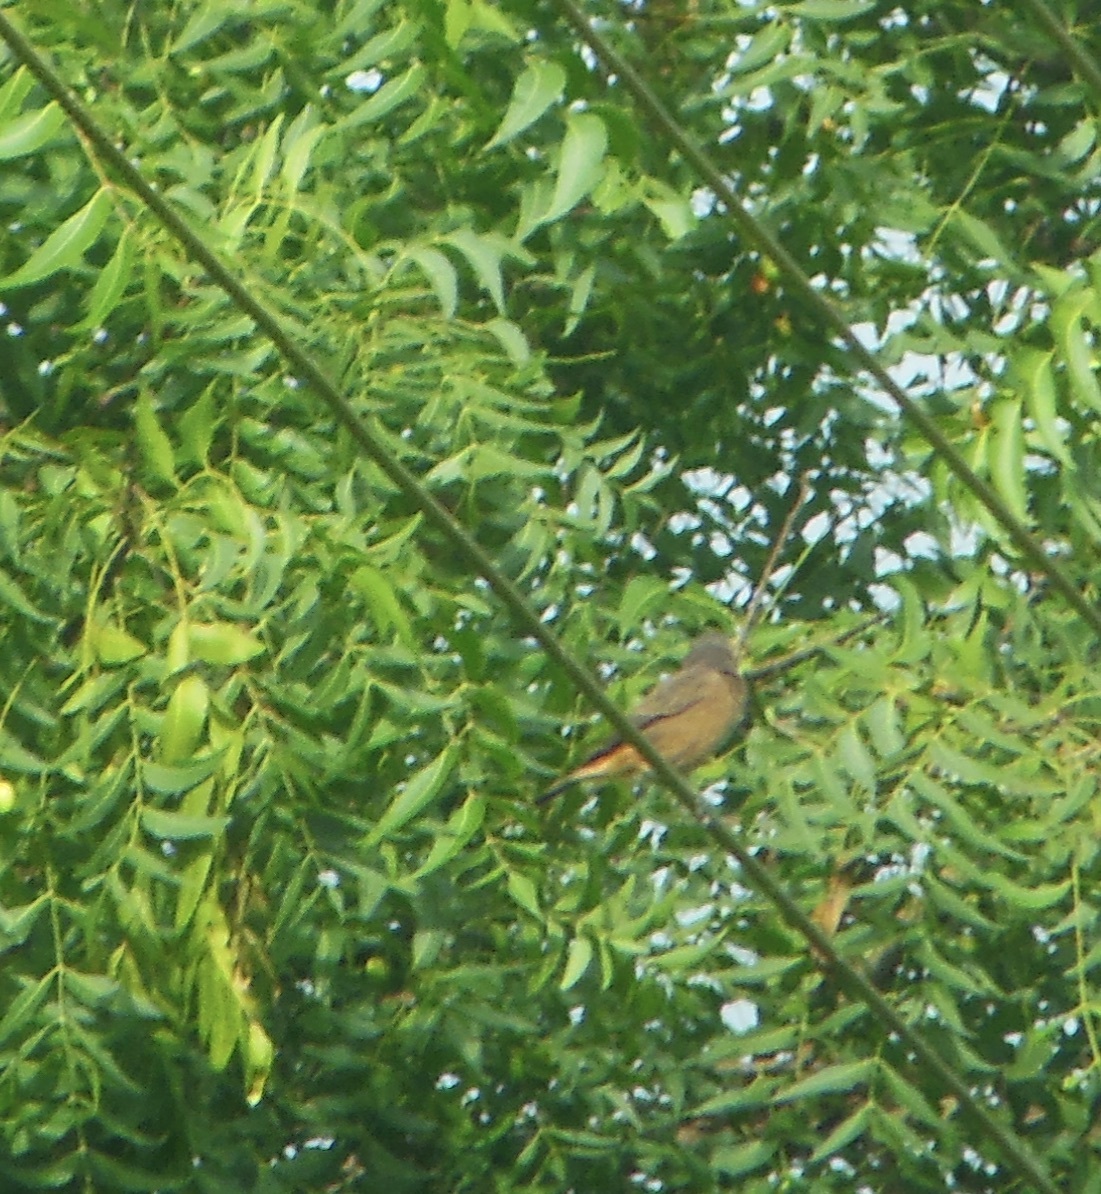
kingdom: Animalia
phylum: Chordata
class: Aves
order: Passeriformes
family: Muscicapidae
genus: Phoenicurus
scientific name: Phoenicurus ochruros
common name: Black redstart
